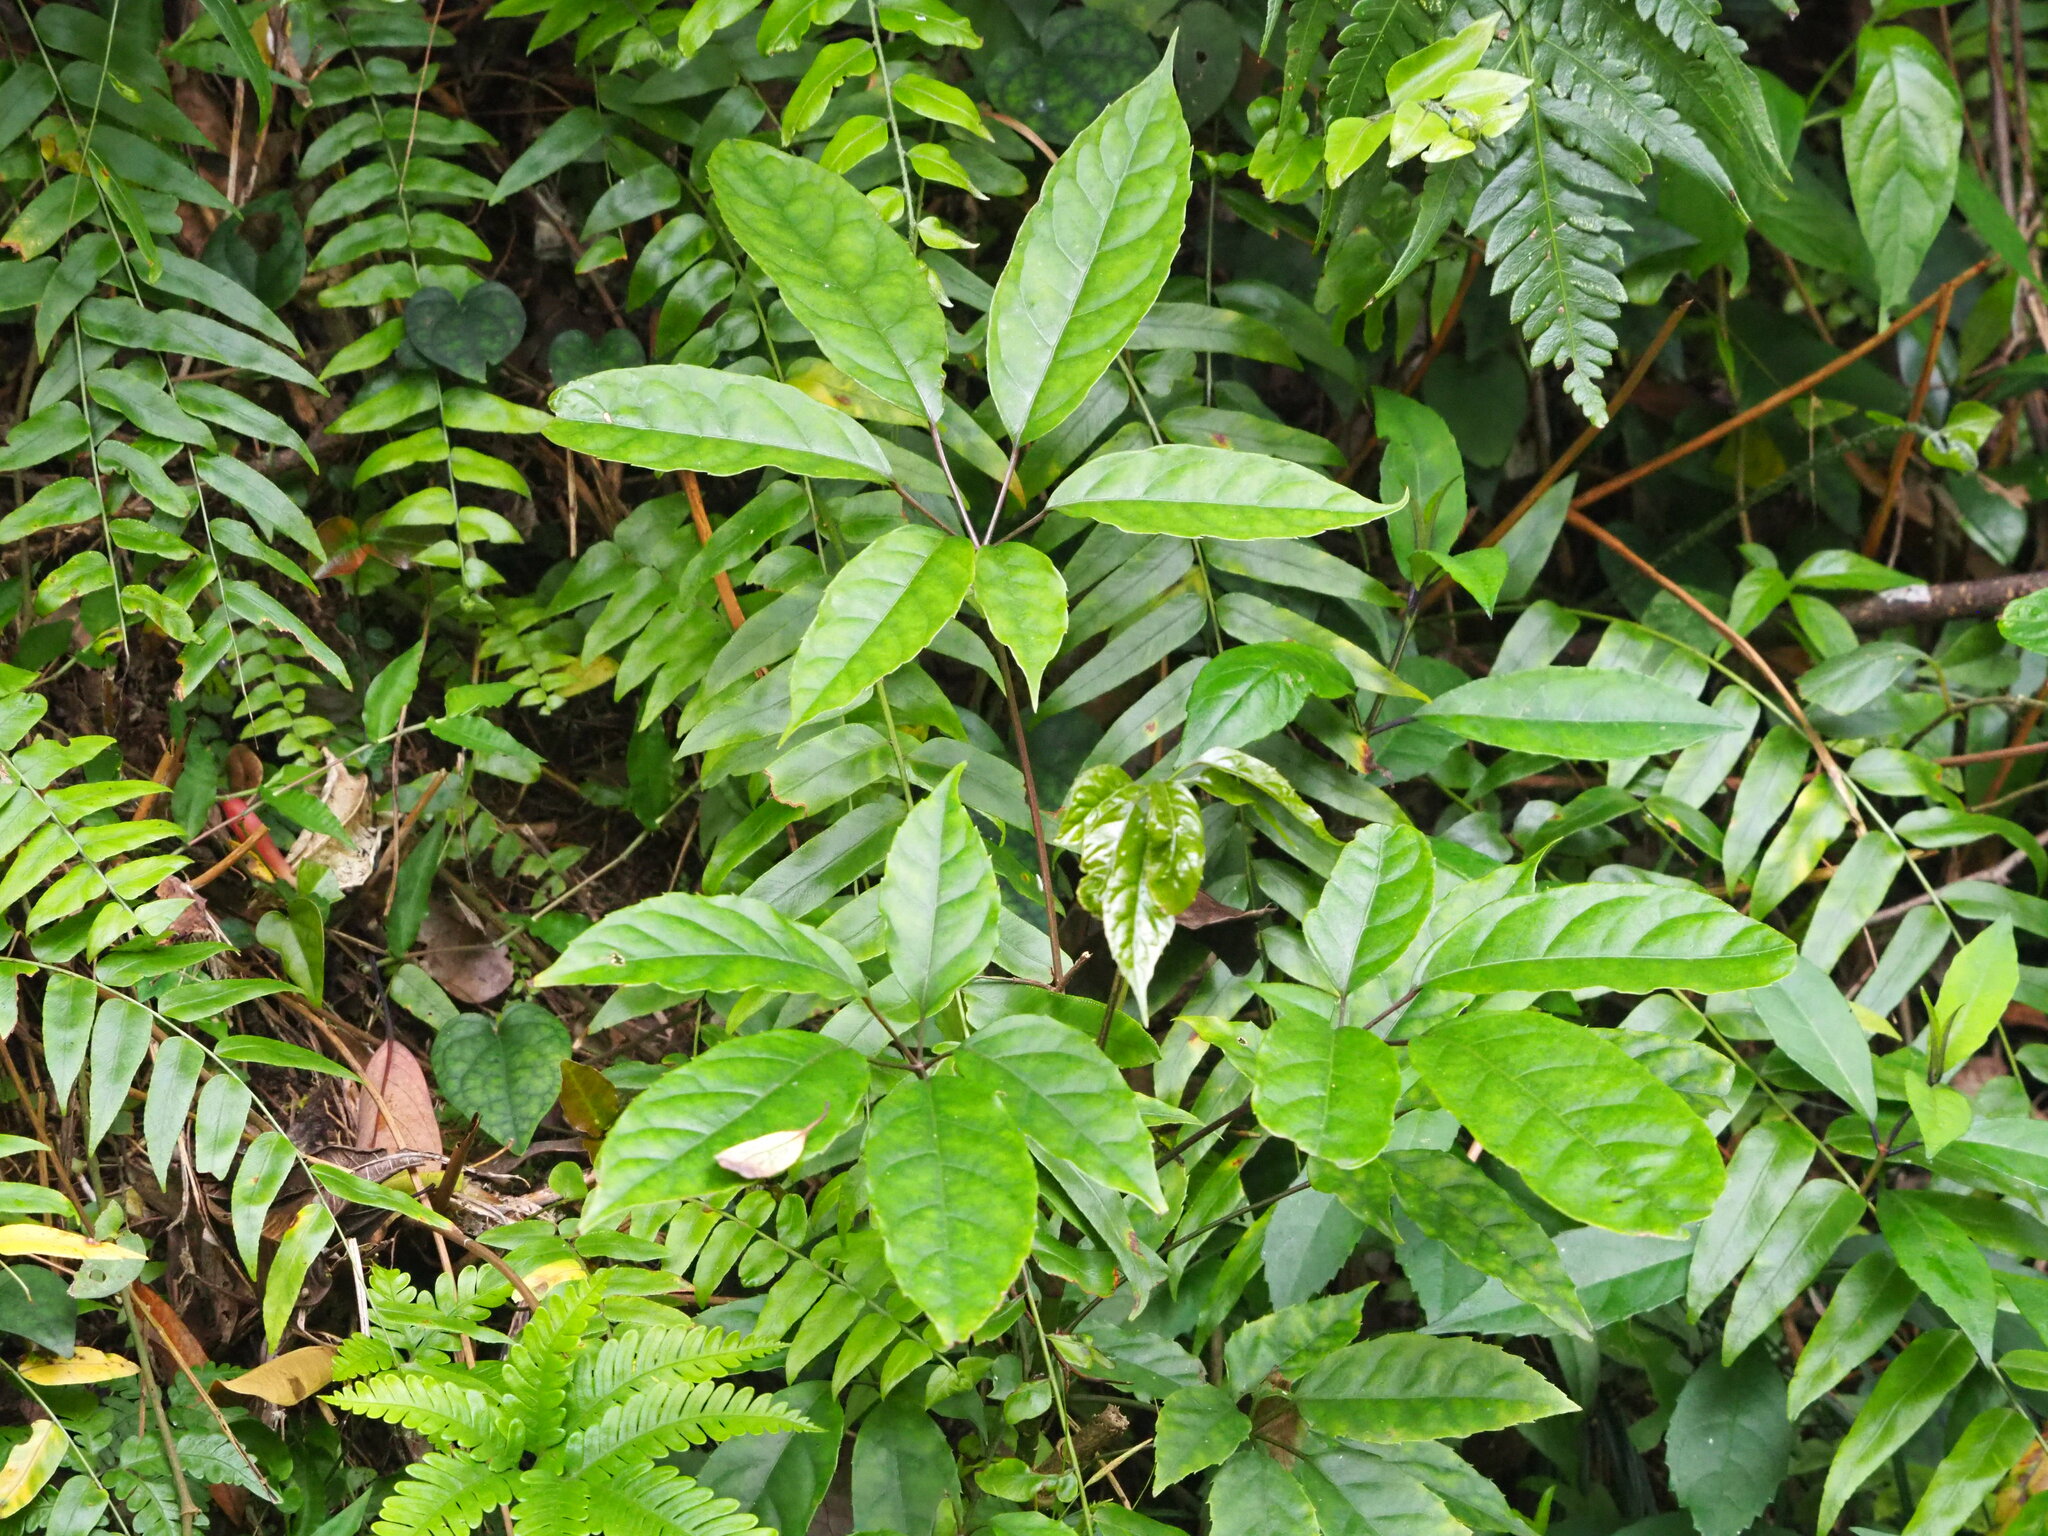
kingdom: Plantae
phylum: Tracheophyta
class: Magnoliopsida
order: Apiales
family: Araliaceae
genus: Heptapleurum
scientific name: Heptapleurum heptaphyllum
